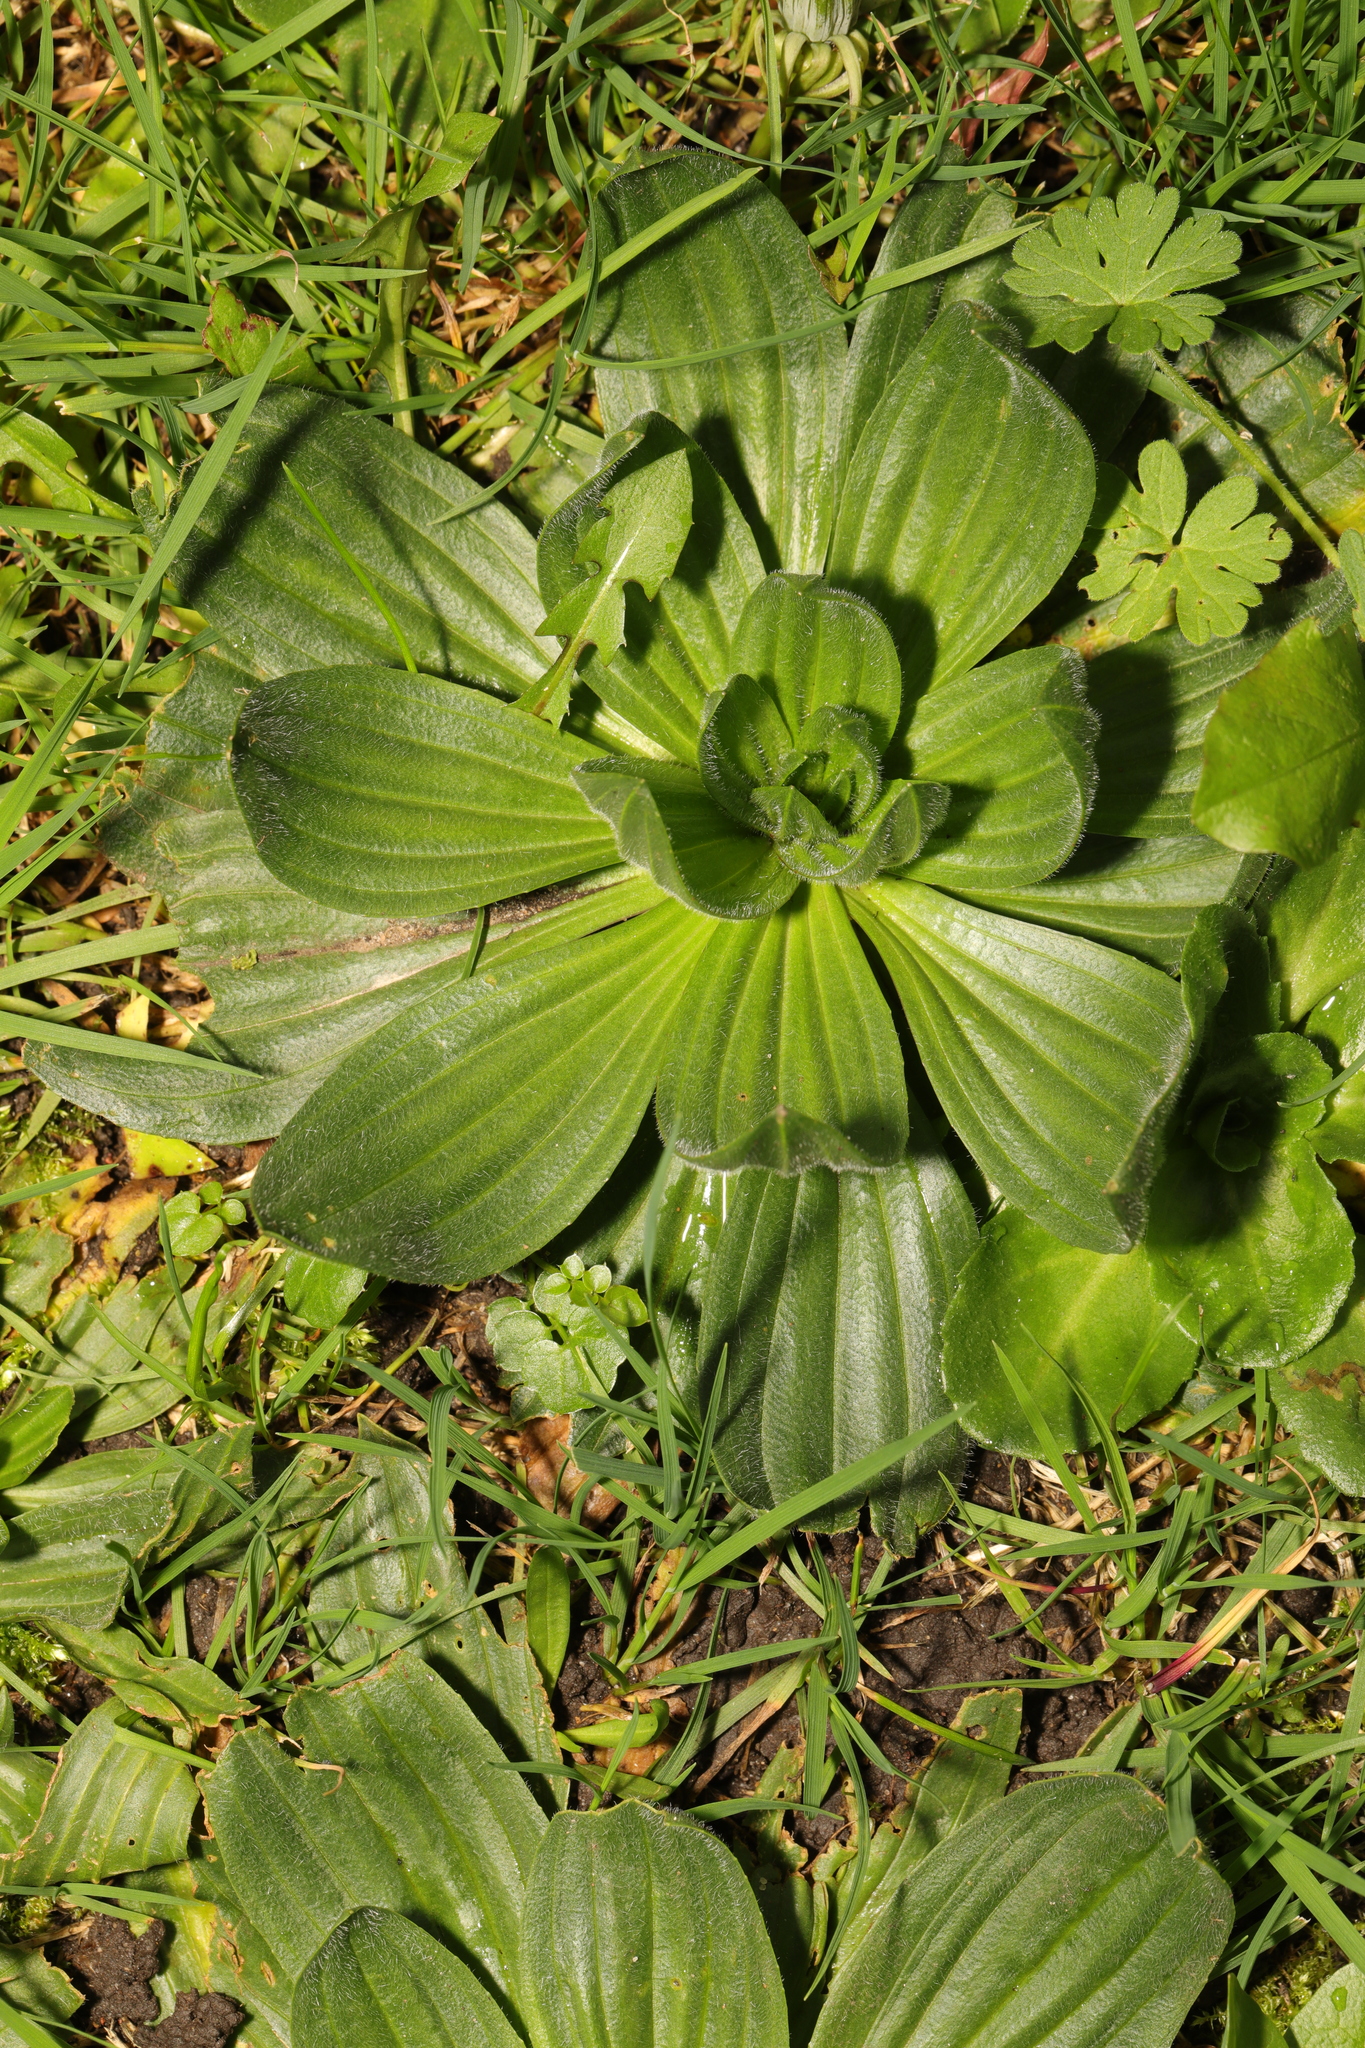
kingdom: Plantae
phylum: Tracheophyta
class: Magnoliopsida
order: Lamiales
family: Plantaginaceae
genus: Plantago
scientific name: Plantago media
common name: Hoary plantain
